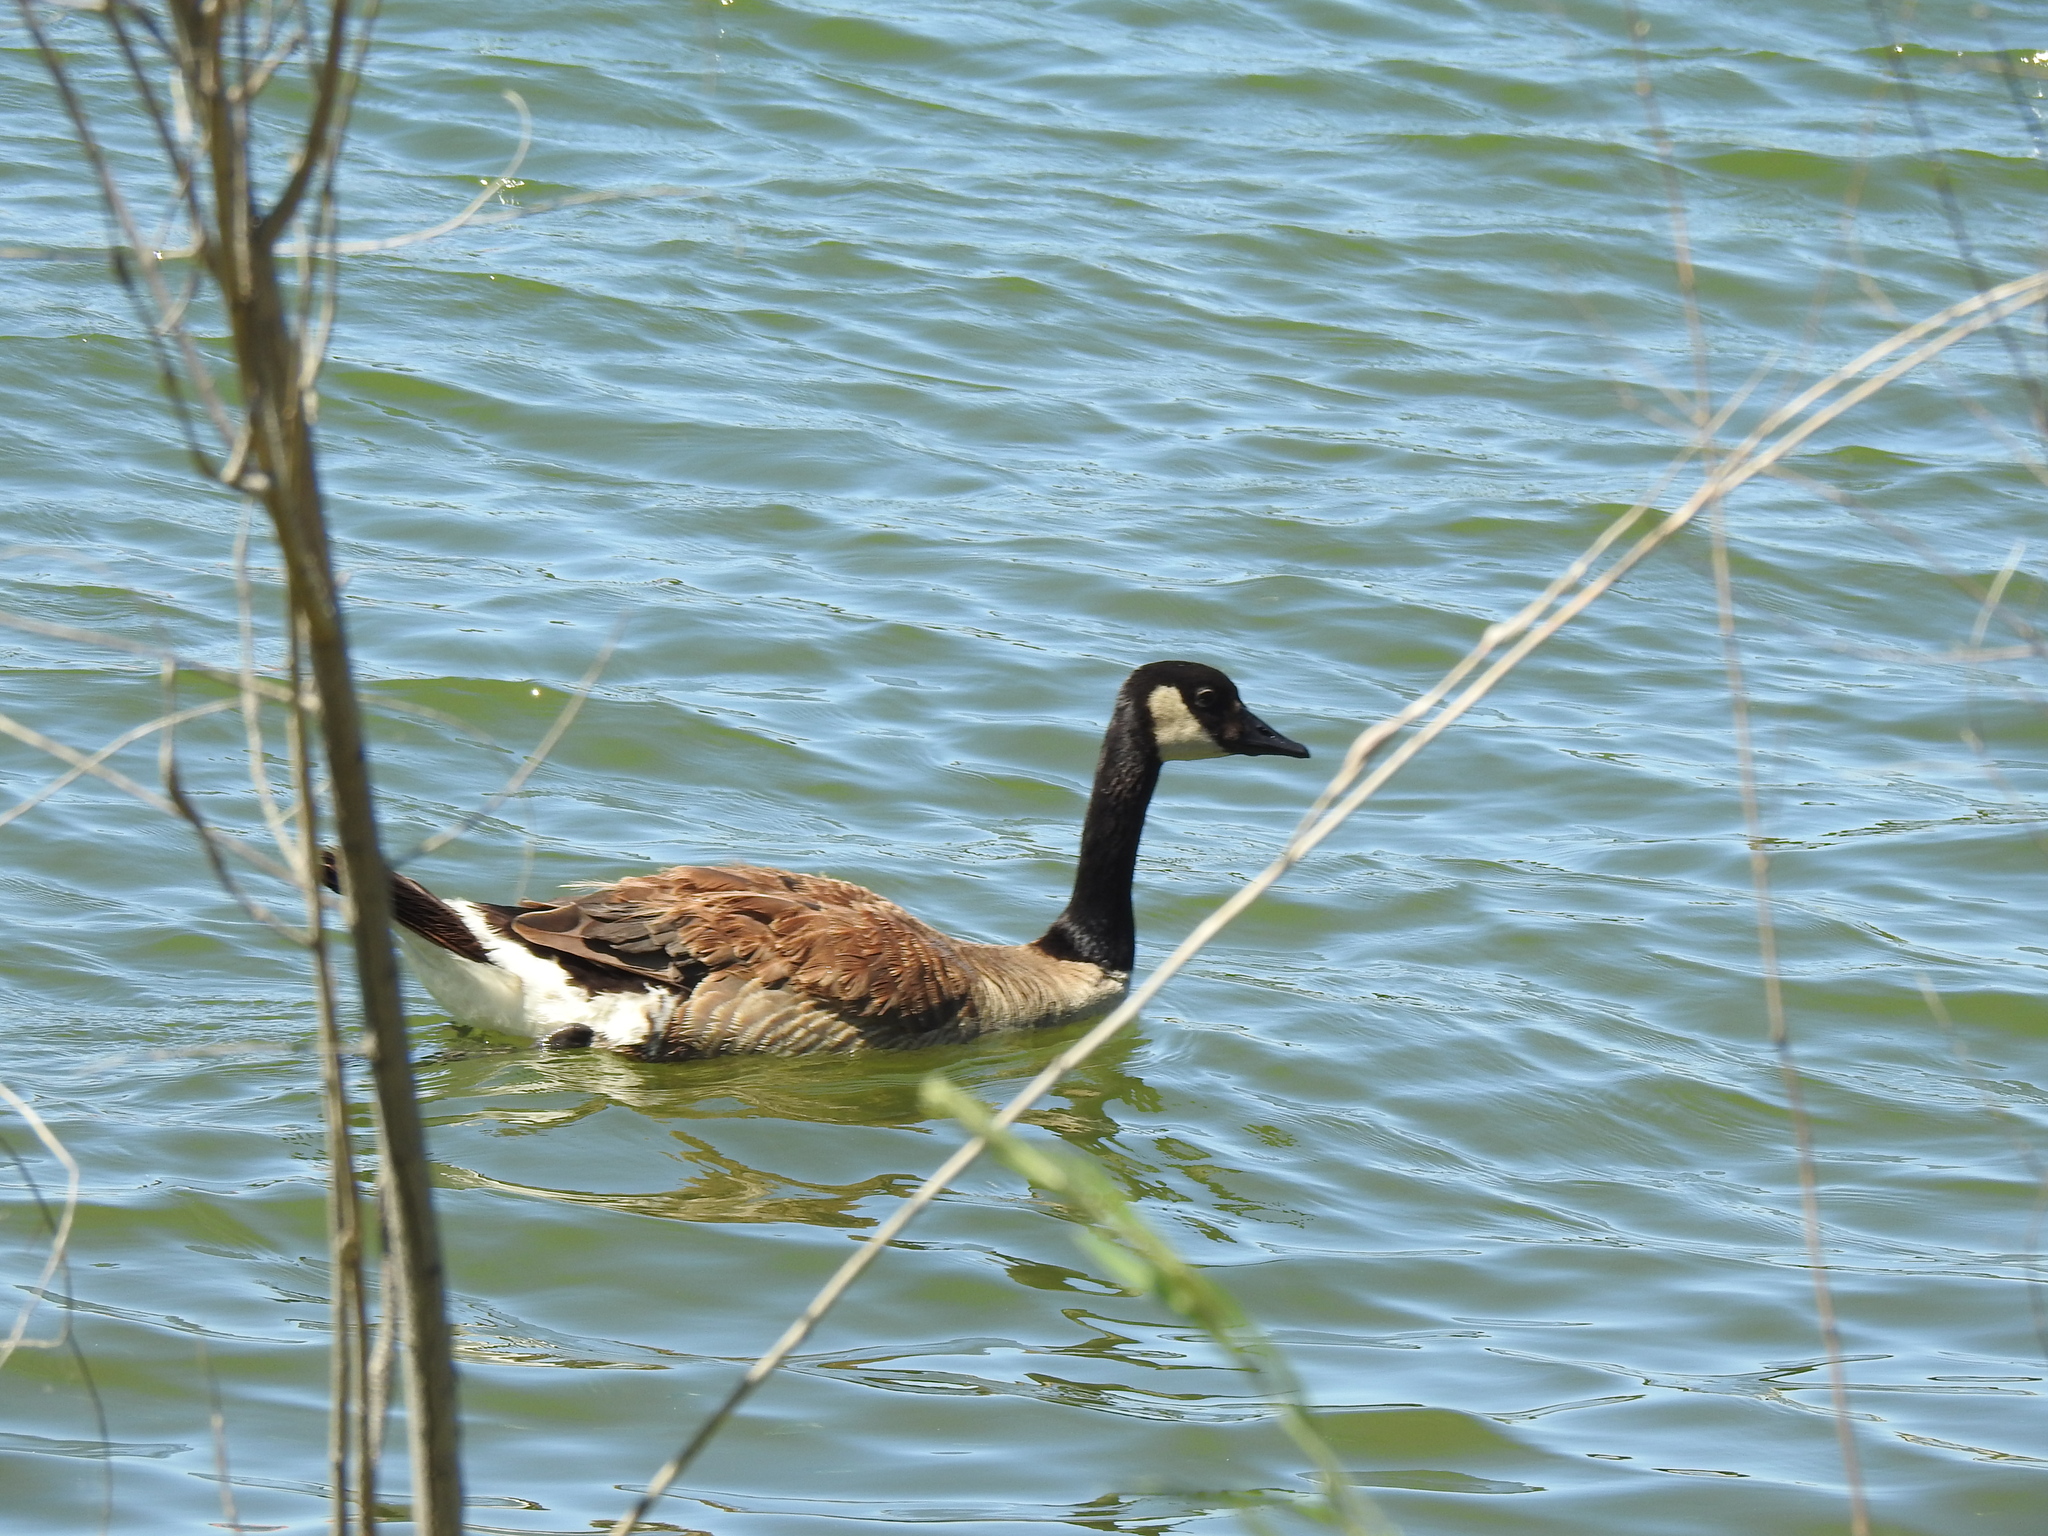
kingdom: Animalia
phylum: Chordata
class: Aves
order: Anseriformes
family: Anatidae
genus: Branta
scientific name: Branta canadensis
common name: Canada goose
